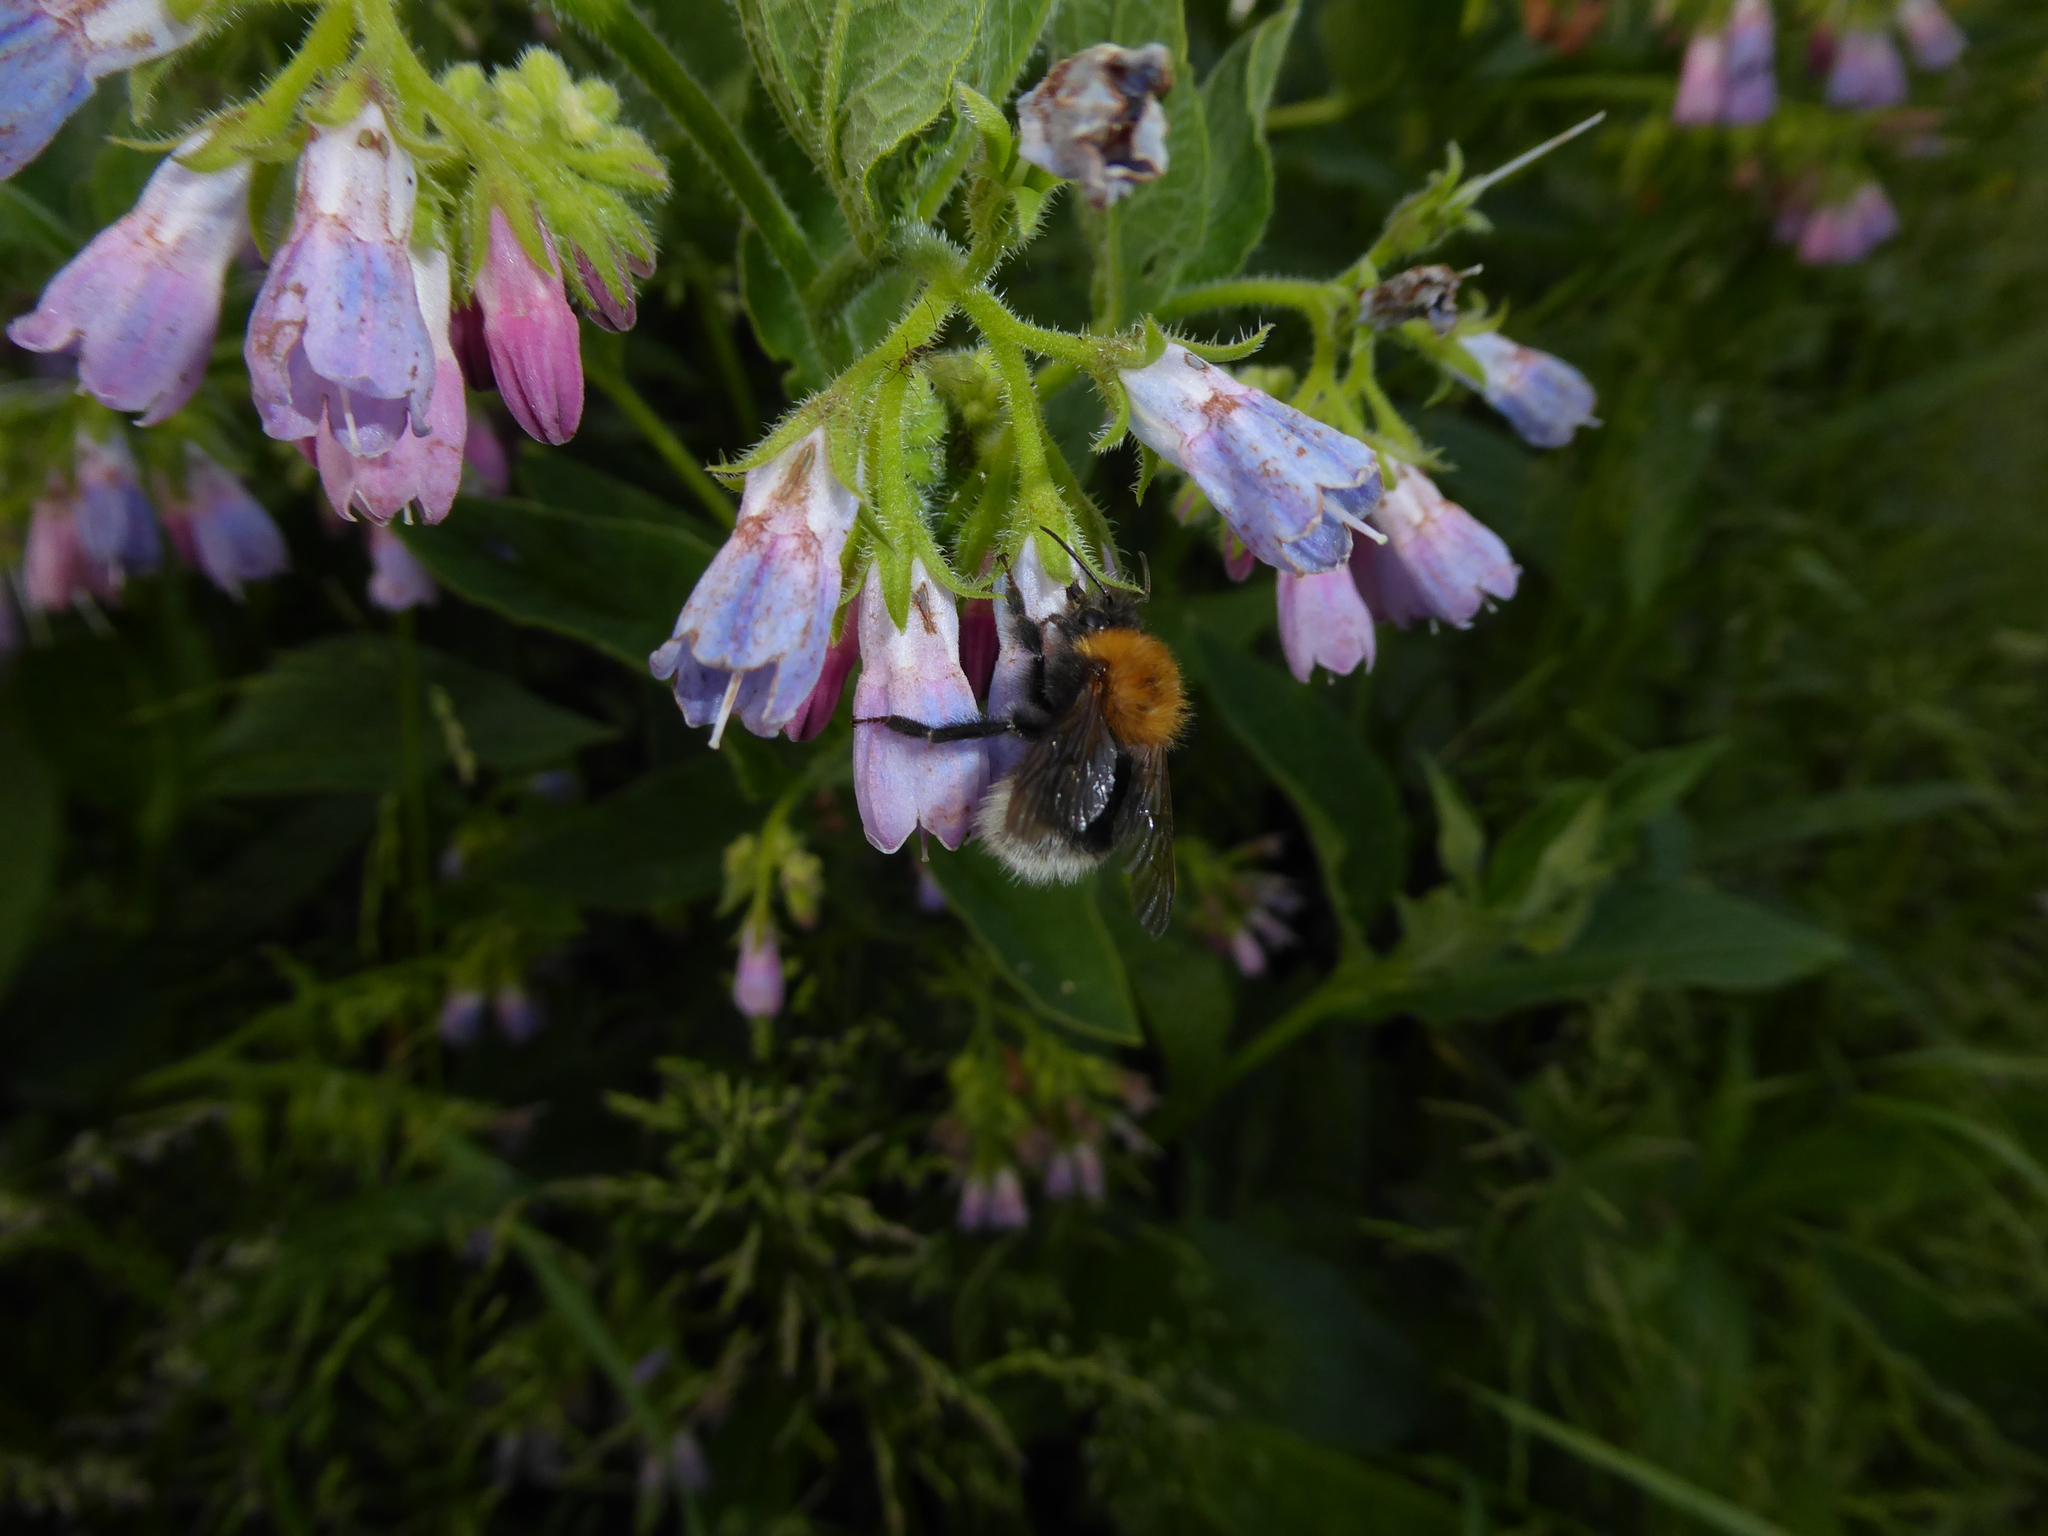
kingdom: Animalia
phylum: Arthropoda
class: Insecta
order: Hymenoptera
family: Apidae
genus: Bombus
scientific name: Bombus hypnorum
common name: New garden bumblebee
